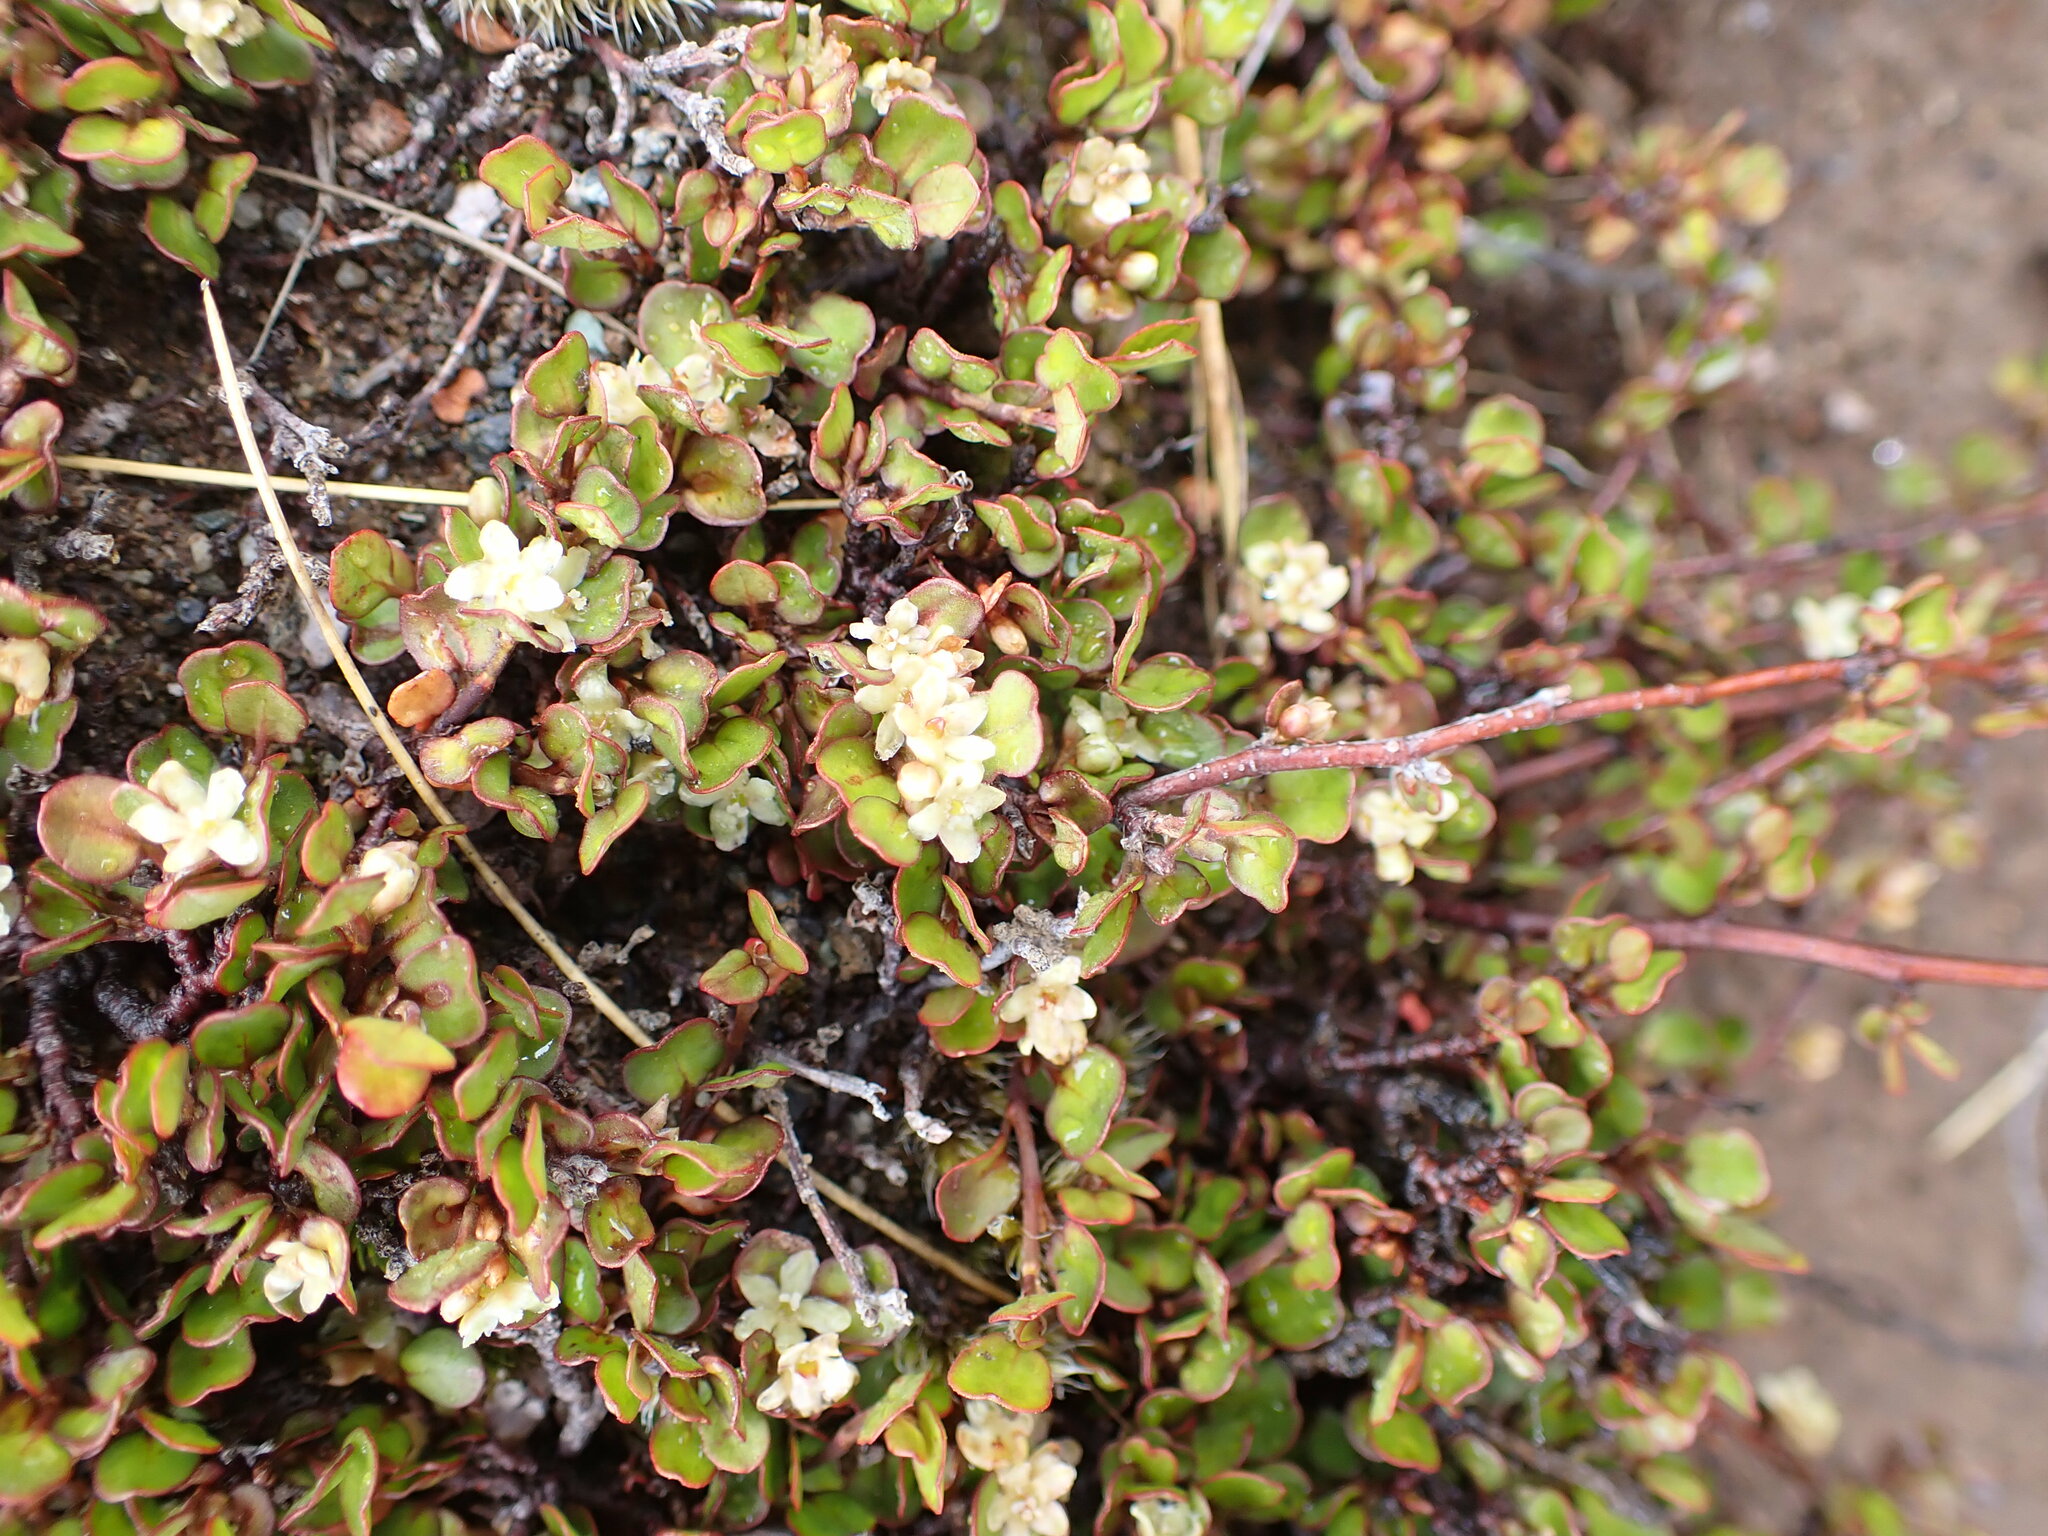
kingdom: Plantae
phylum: Tracheophyta
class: Magnoliopsida
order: Caryophyllales
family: Polygonaceae
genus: Muehlenbeckia
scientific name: Muehlenbeckia axillaris
